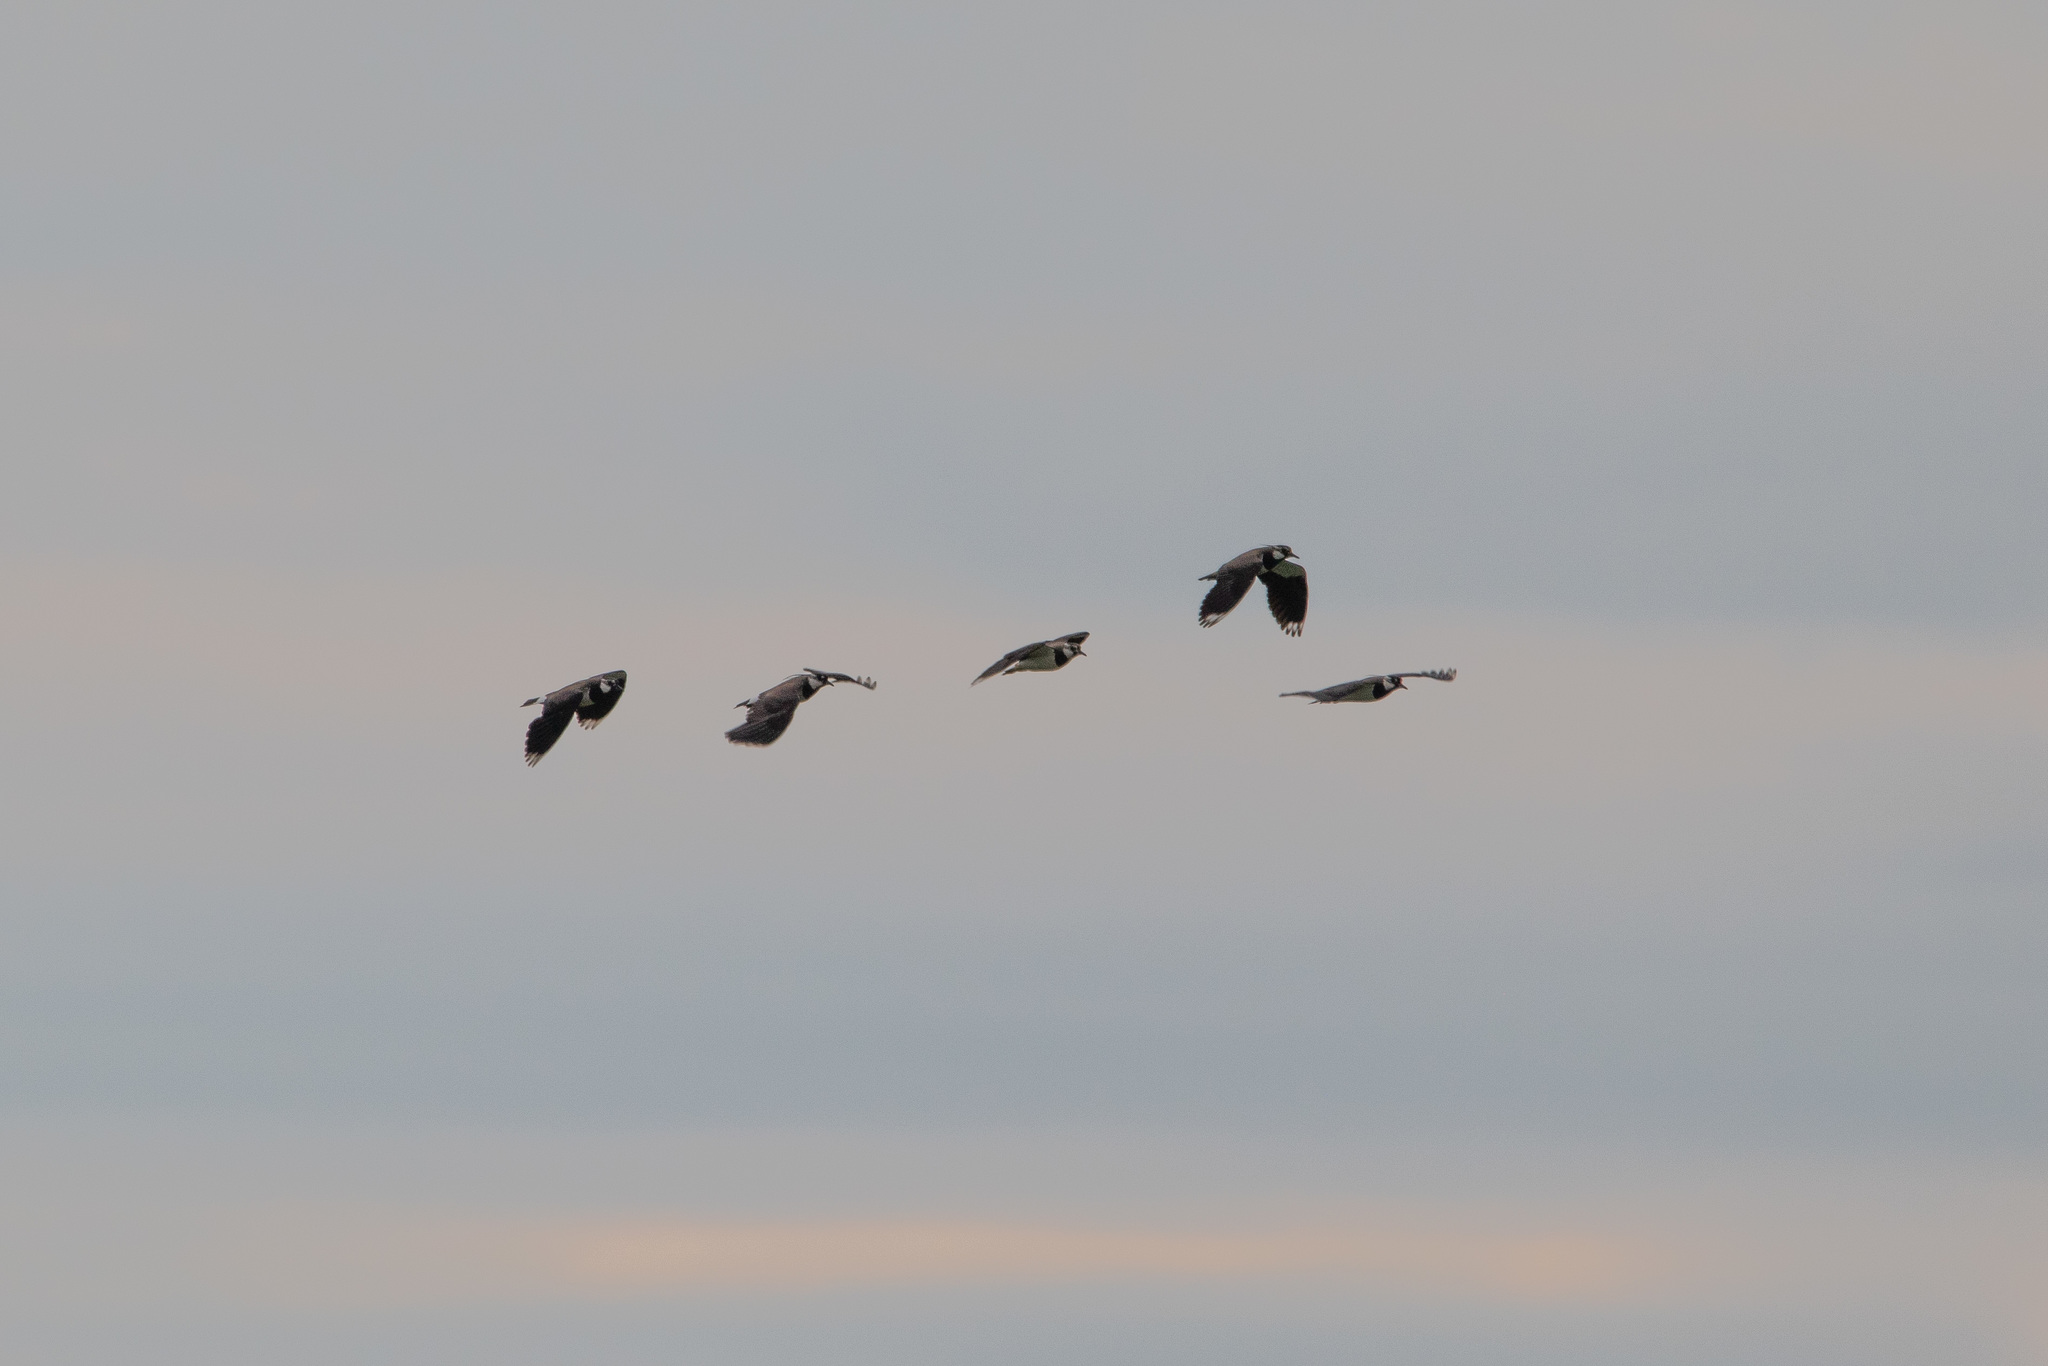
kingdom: Animalia
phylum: Chordata
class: Aves
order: Charadriiformes
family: Charadriidae
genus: Vanellus
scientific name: Vanellus vanellus
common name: Northern lapwing
